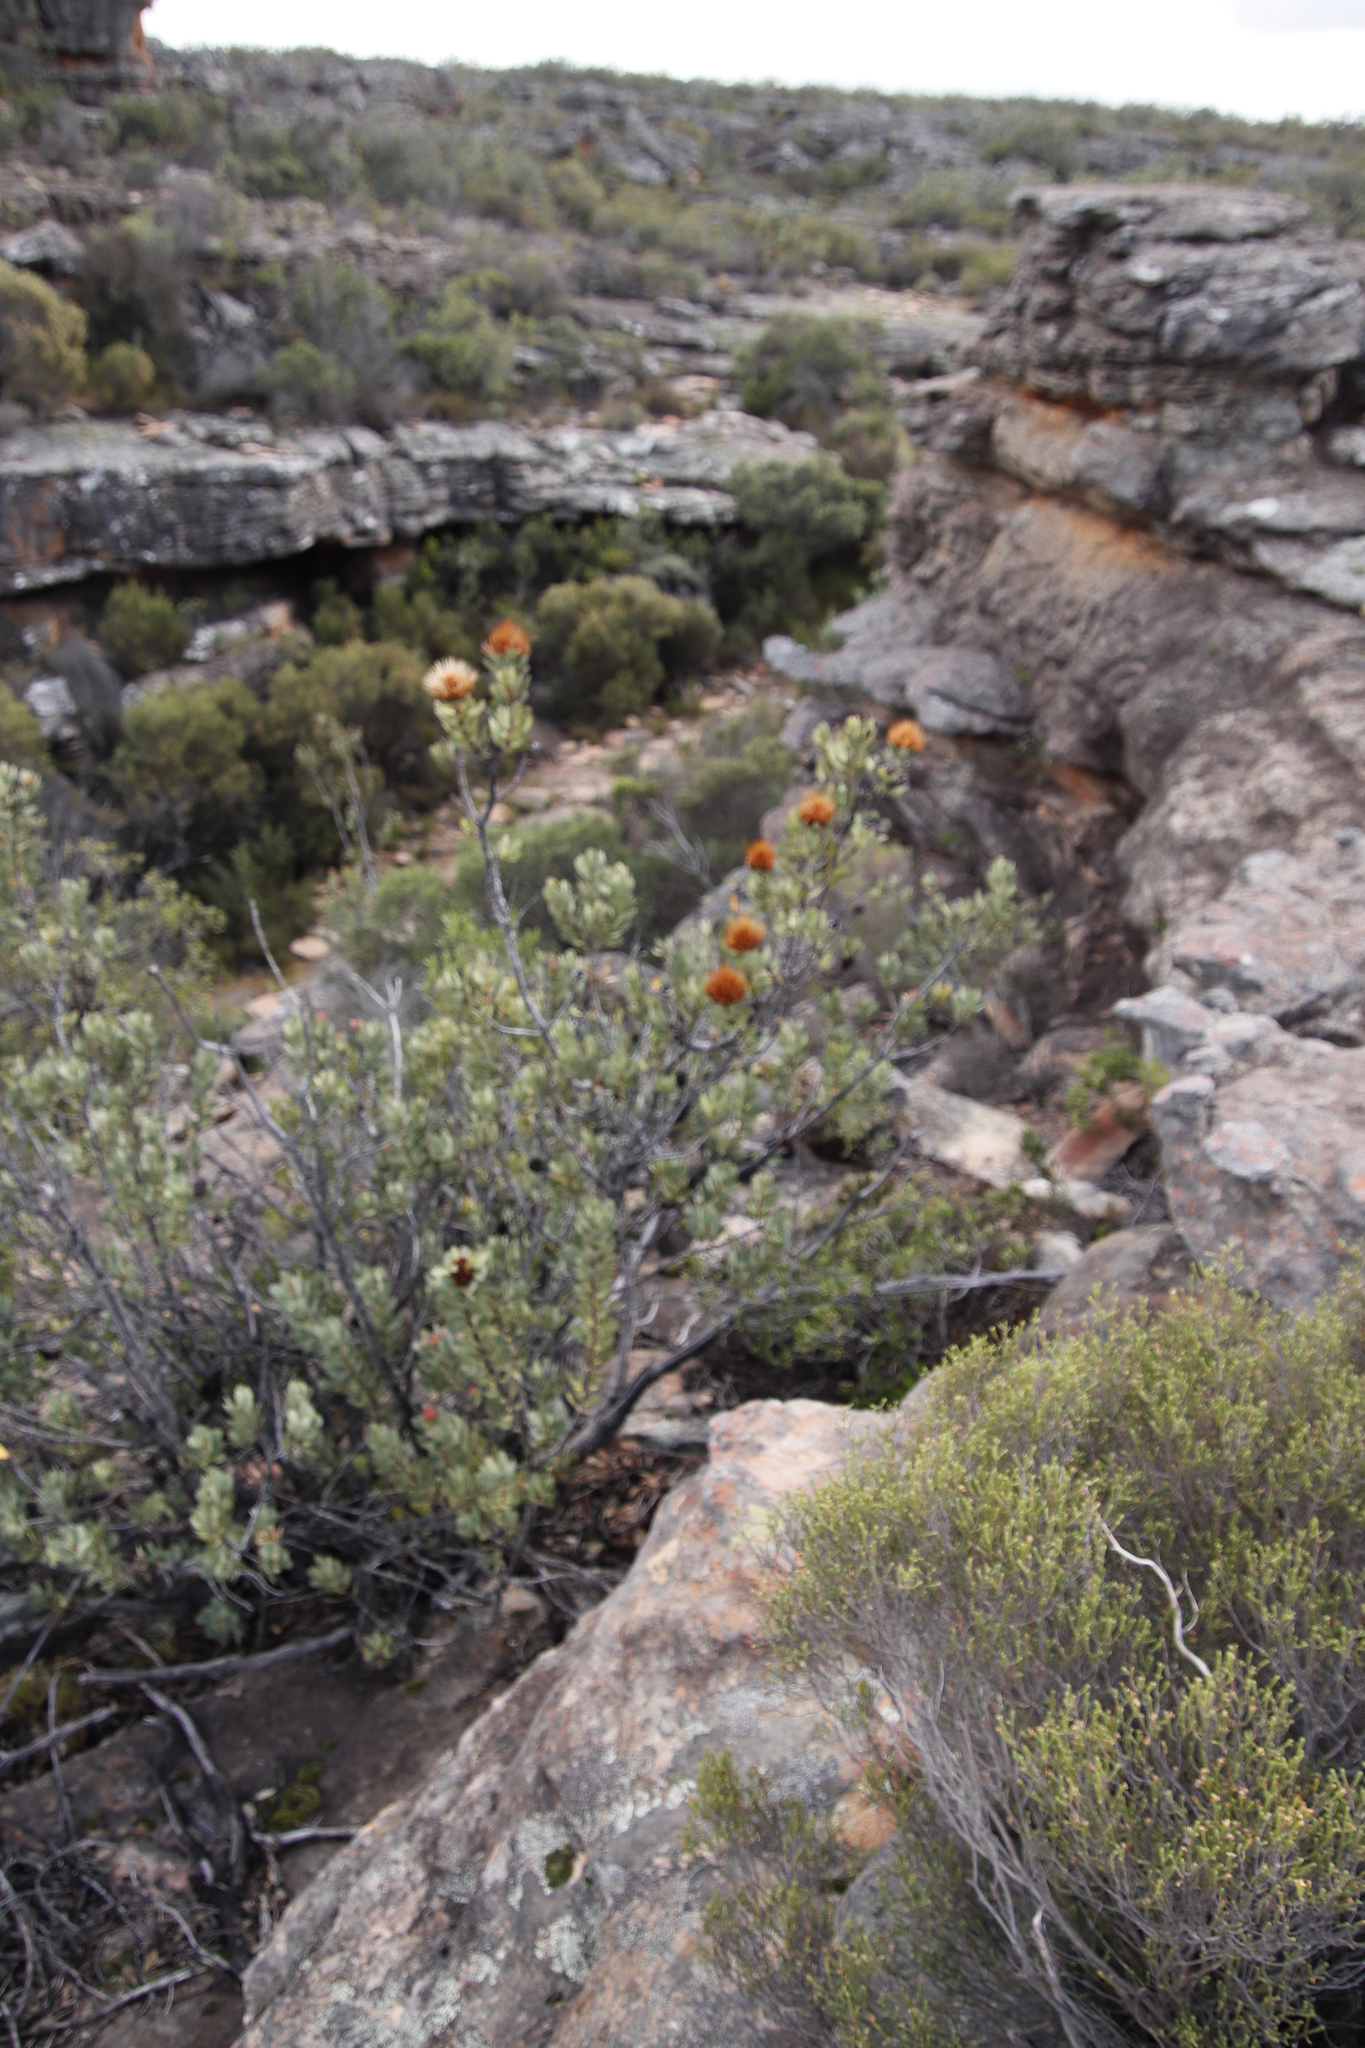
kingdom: Plantae
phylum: Tracheophyta
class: Magnoliopsida
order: Proteales
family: Proteaceae
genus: Protea
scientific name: Protea glabra
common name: Chestnut sugarbush
